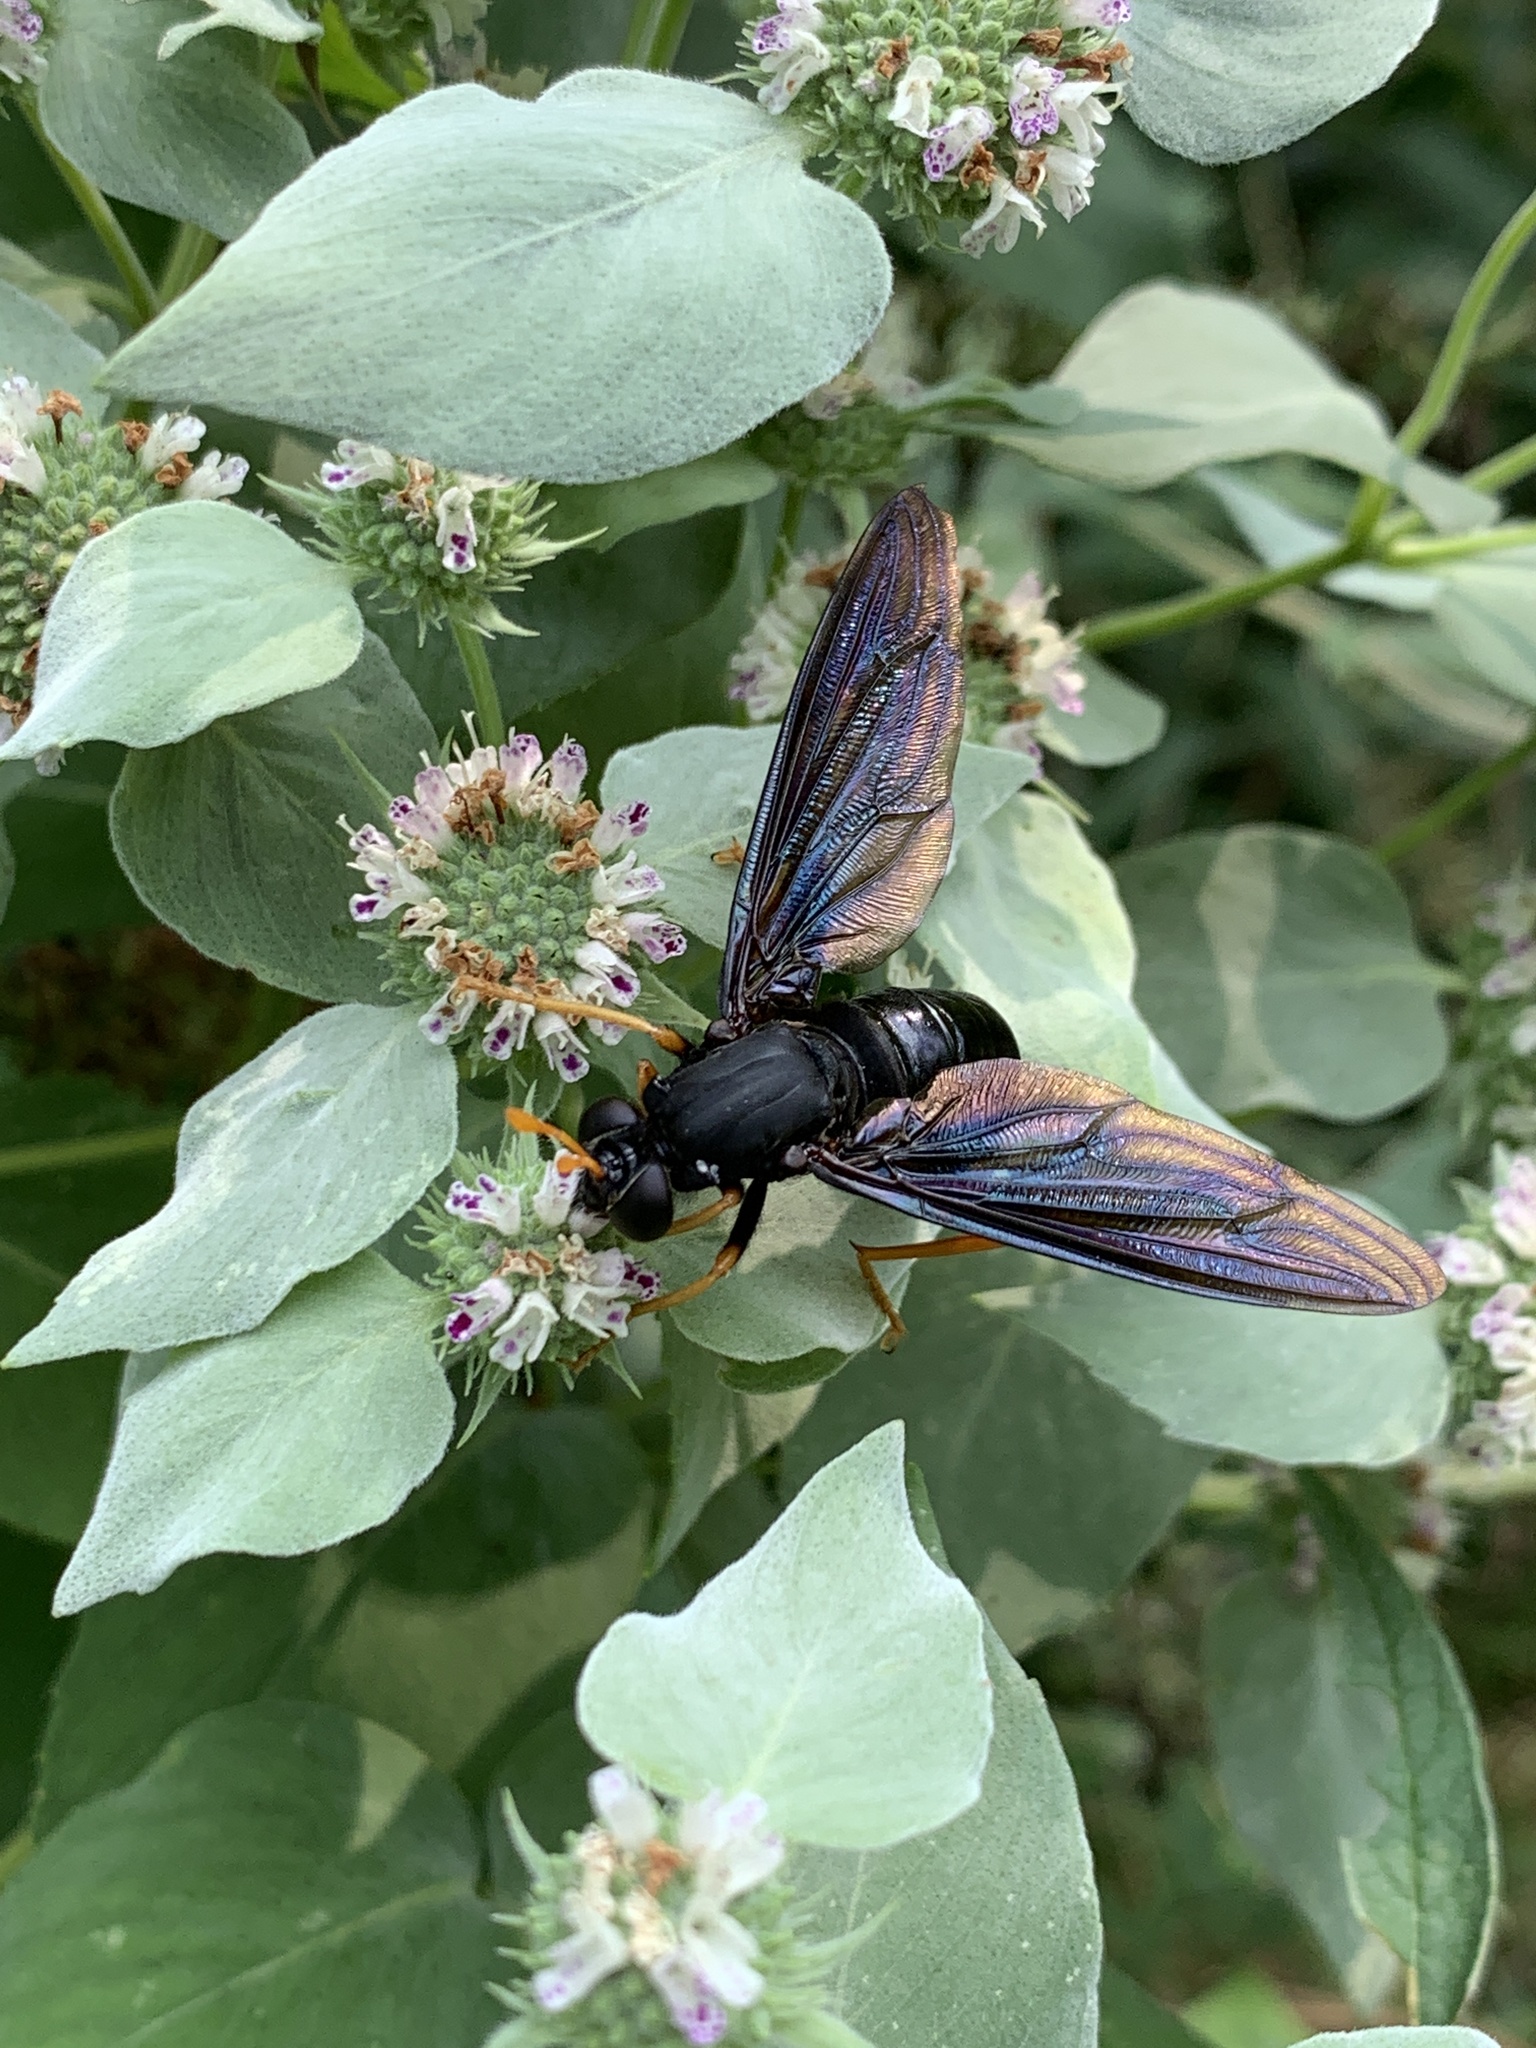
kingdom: Animalia
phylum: Arthropoda
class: Insecta
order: Diptera
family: Mydidae
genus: Mydas
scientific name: Mydas tibialis
